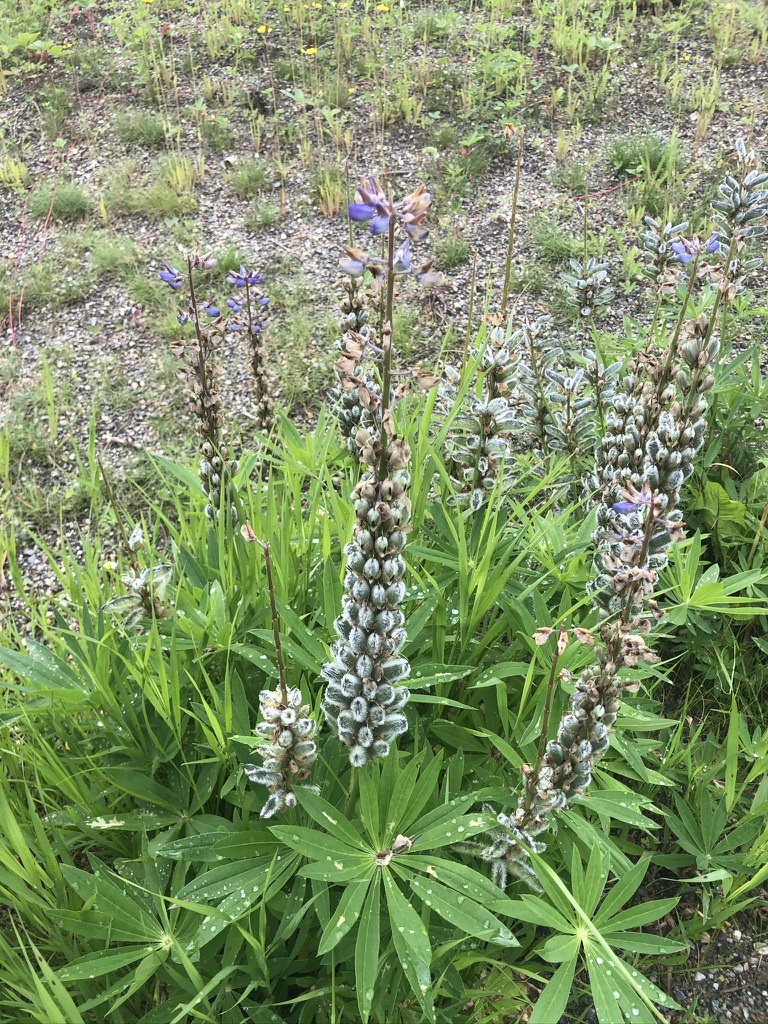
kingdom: Plantae
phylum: Tracheophyta
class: Magnoliopsida
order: Fabales
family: Fabaceae
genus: Lupinus
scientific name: Lupinus polyphyllus
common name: Garden lupin
